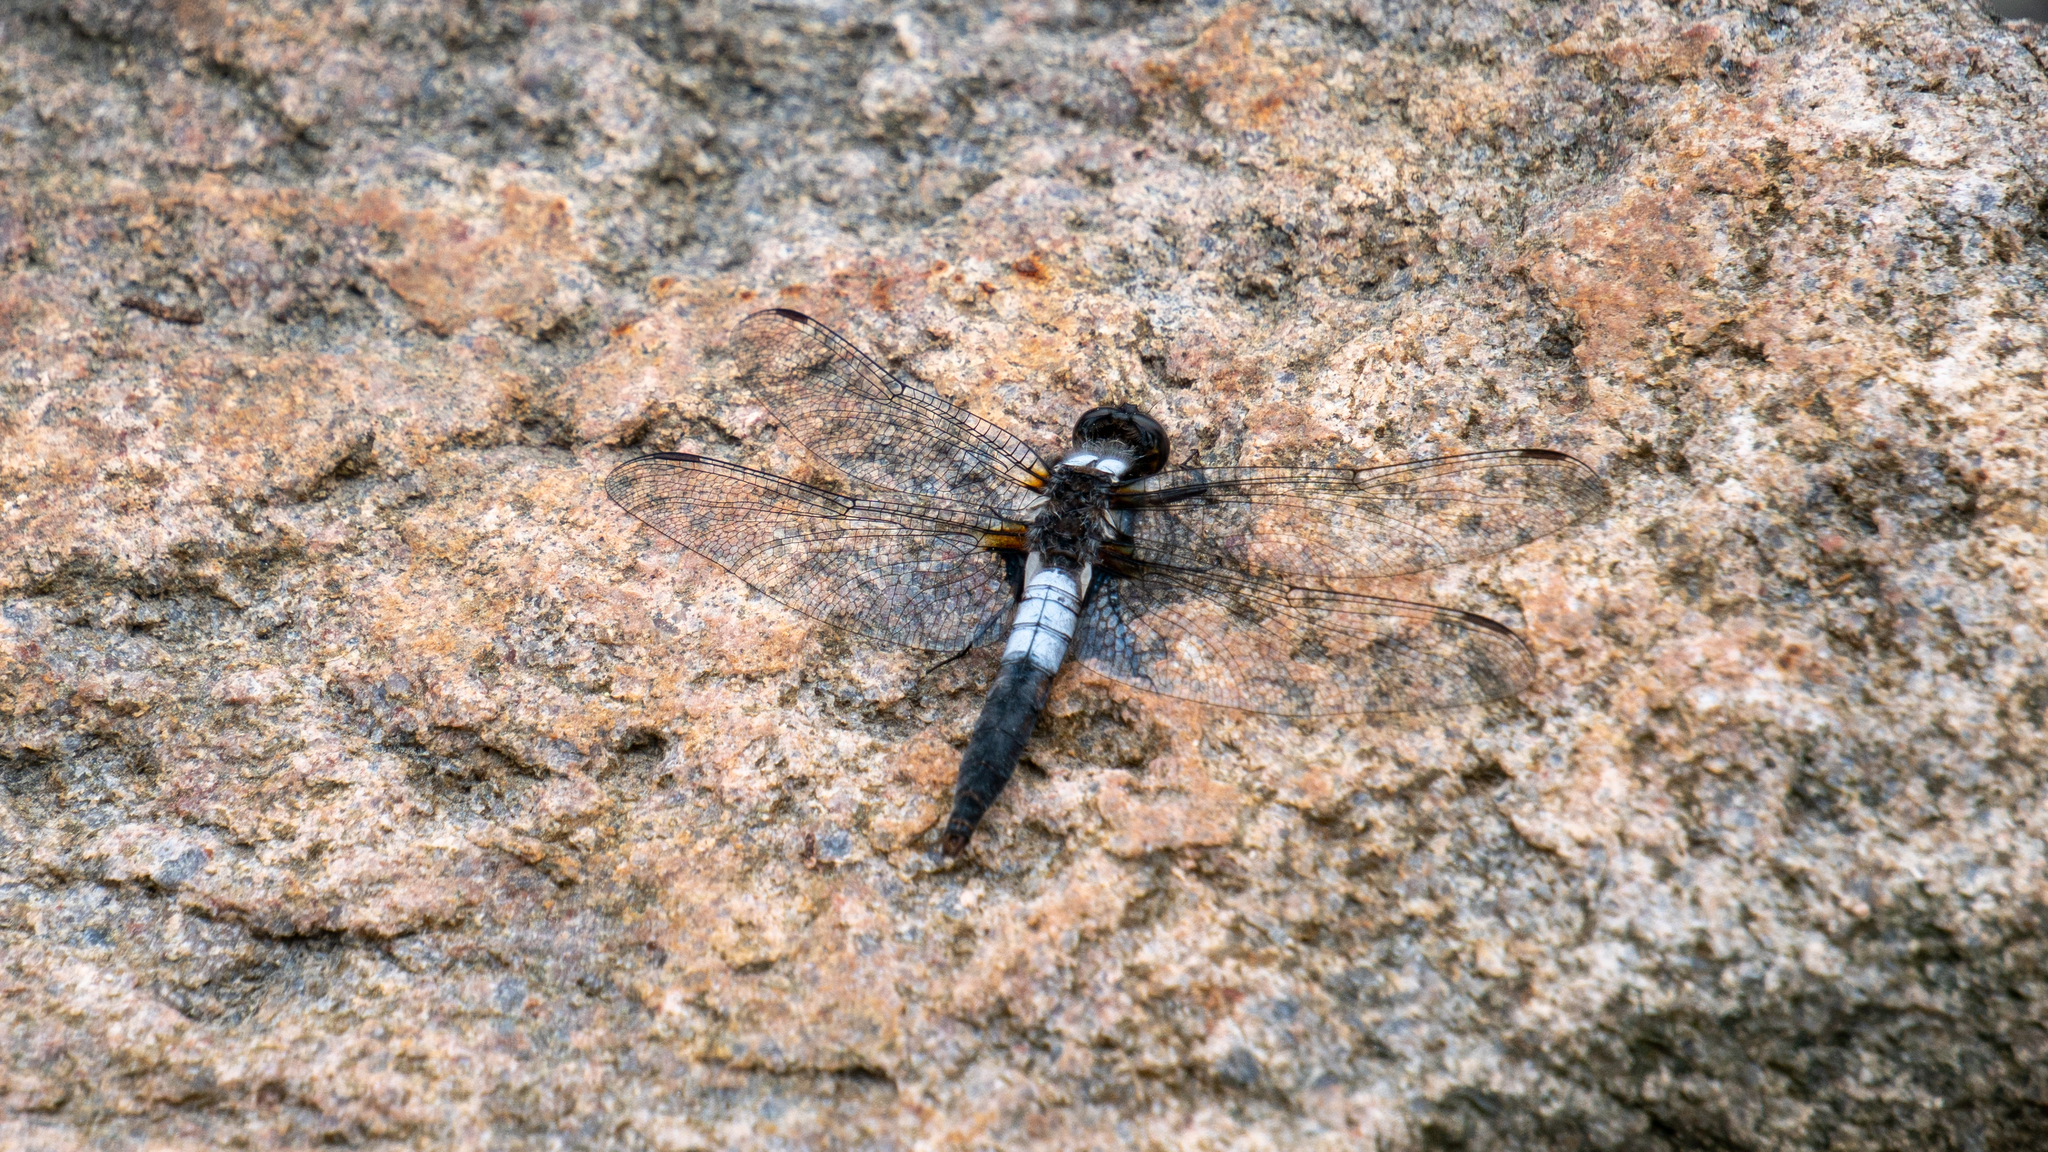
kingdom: Animalia
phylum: Arthropoda
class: Insecta
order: Odonata
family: Libellulidae
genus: Ladona
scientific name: Ladona julia
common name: Chalk-fronted corporal
